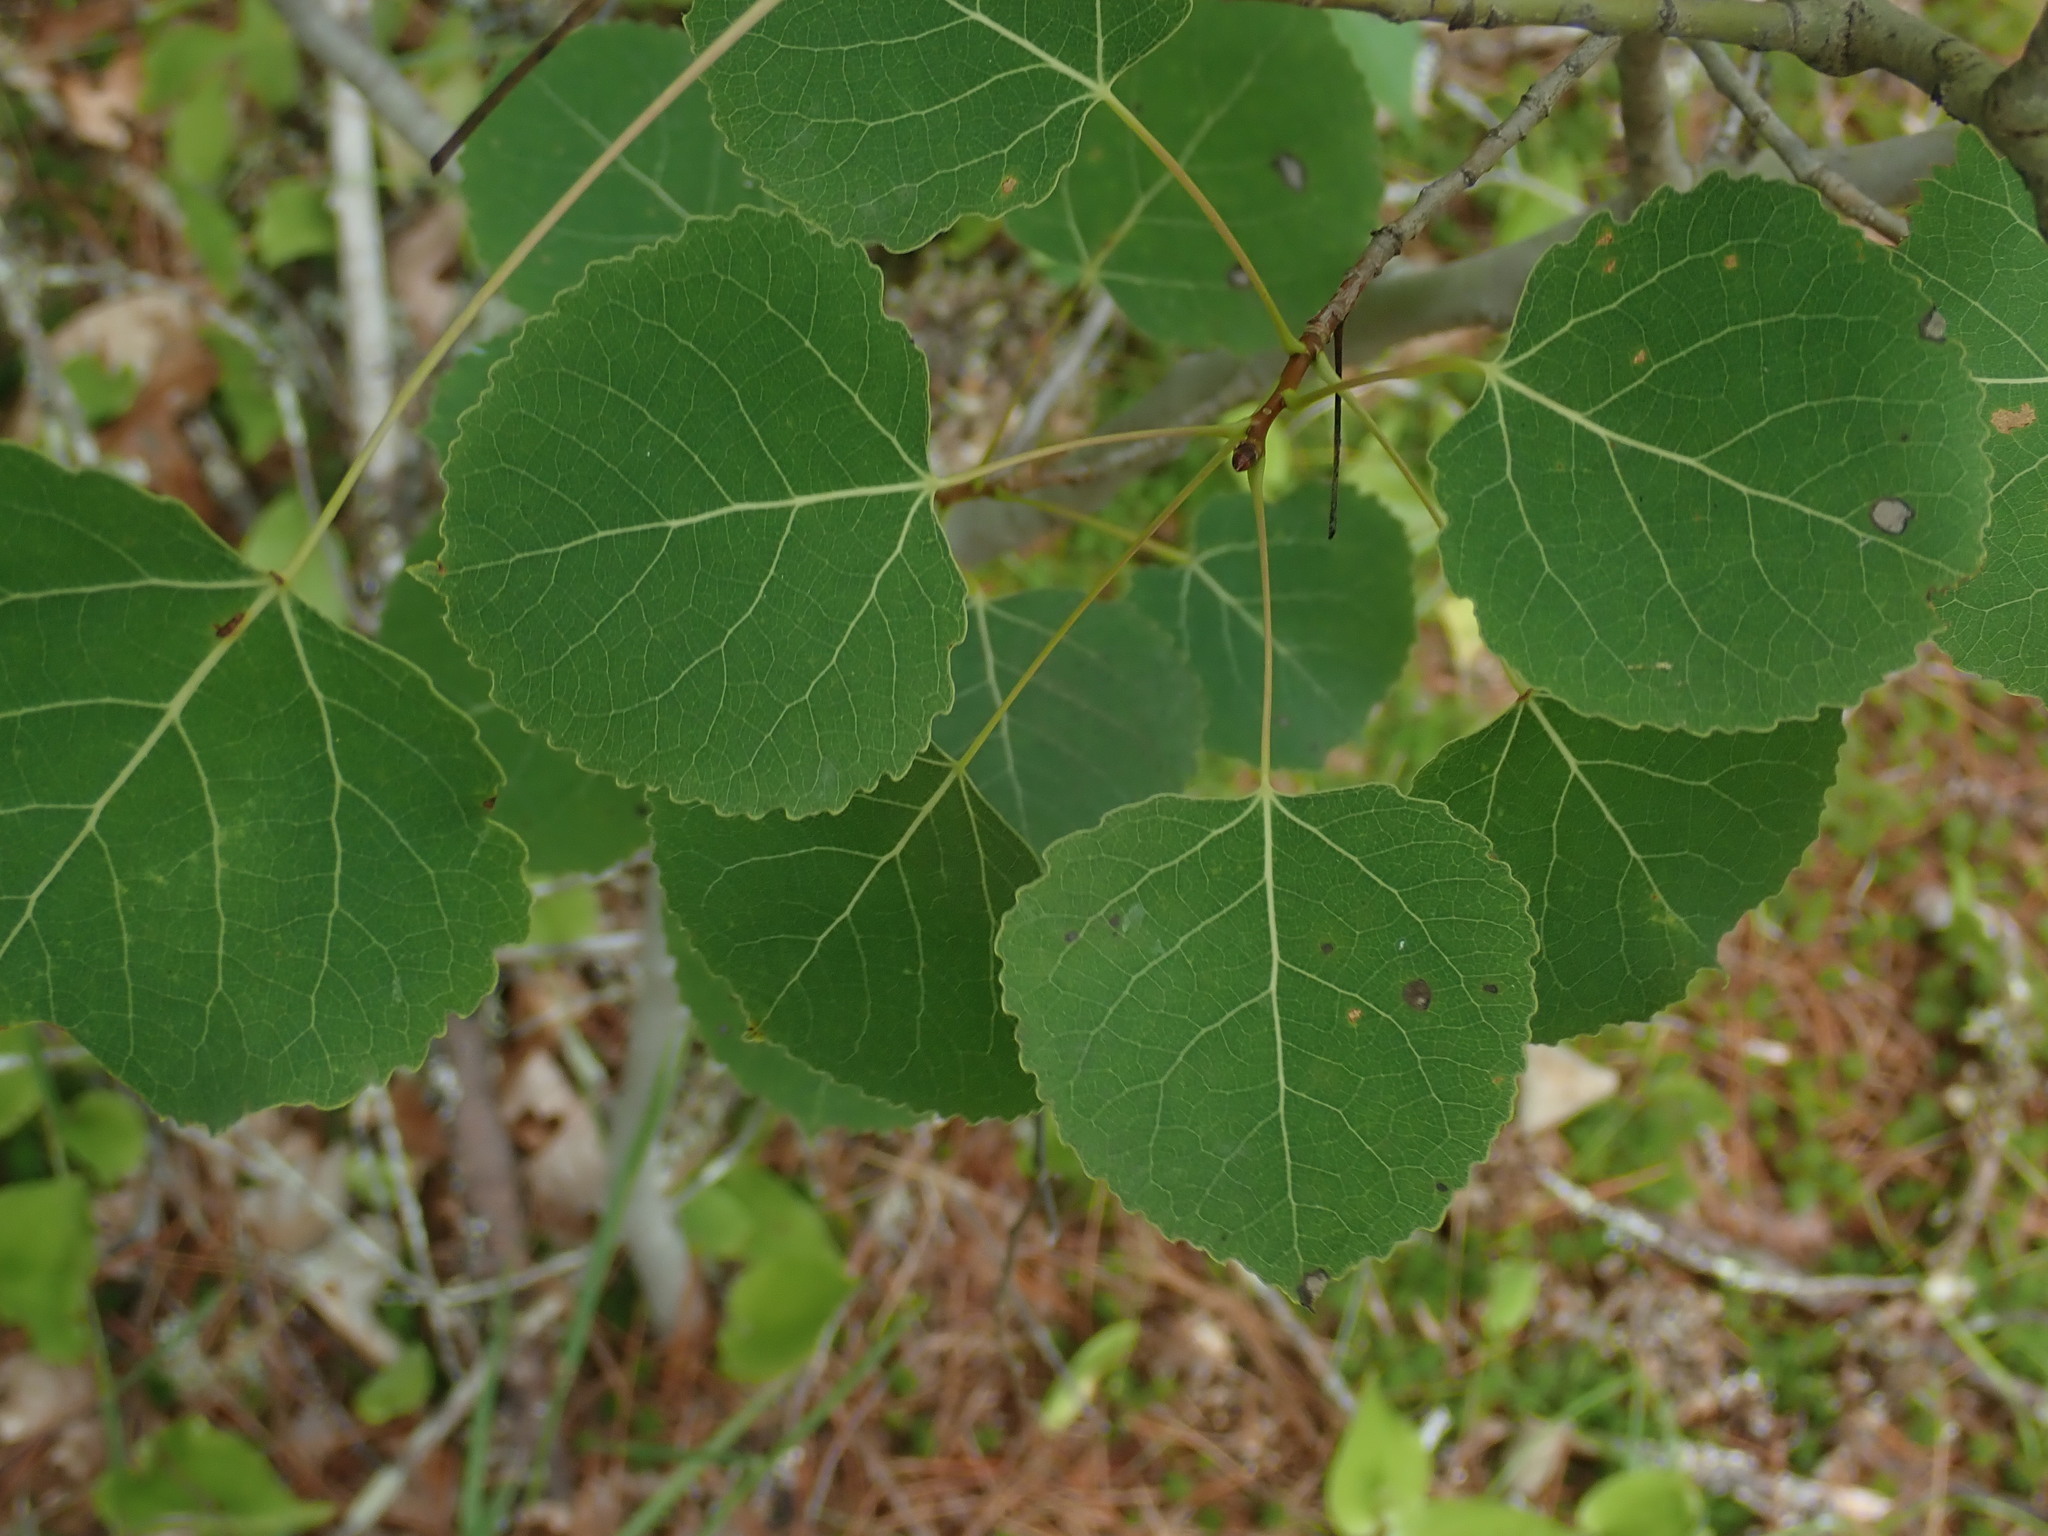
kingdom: Plantae
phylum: Tracheophyta
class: Magnoliopsida
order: Malpighiales
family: Salicaceae
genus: Populus
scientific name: Populus tremuloides
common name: Quaking aspen
